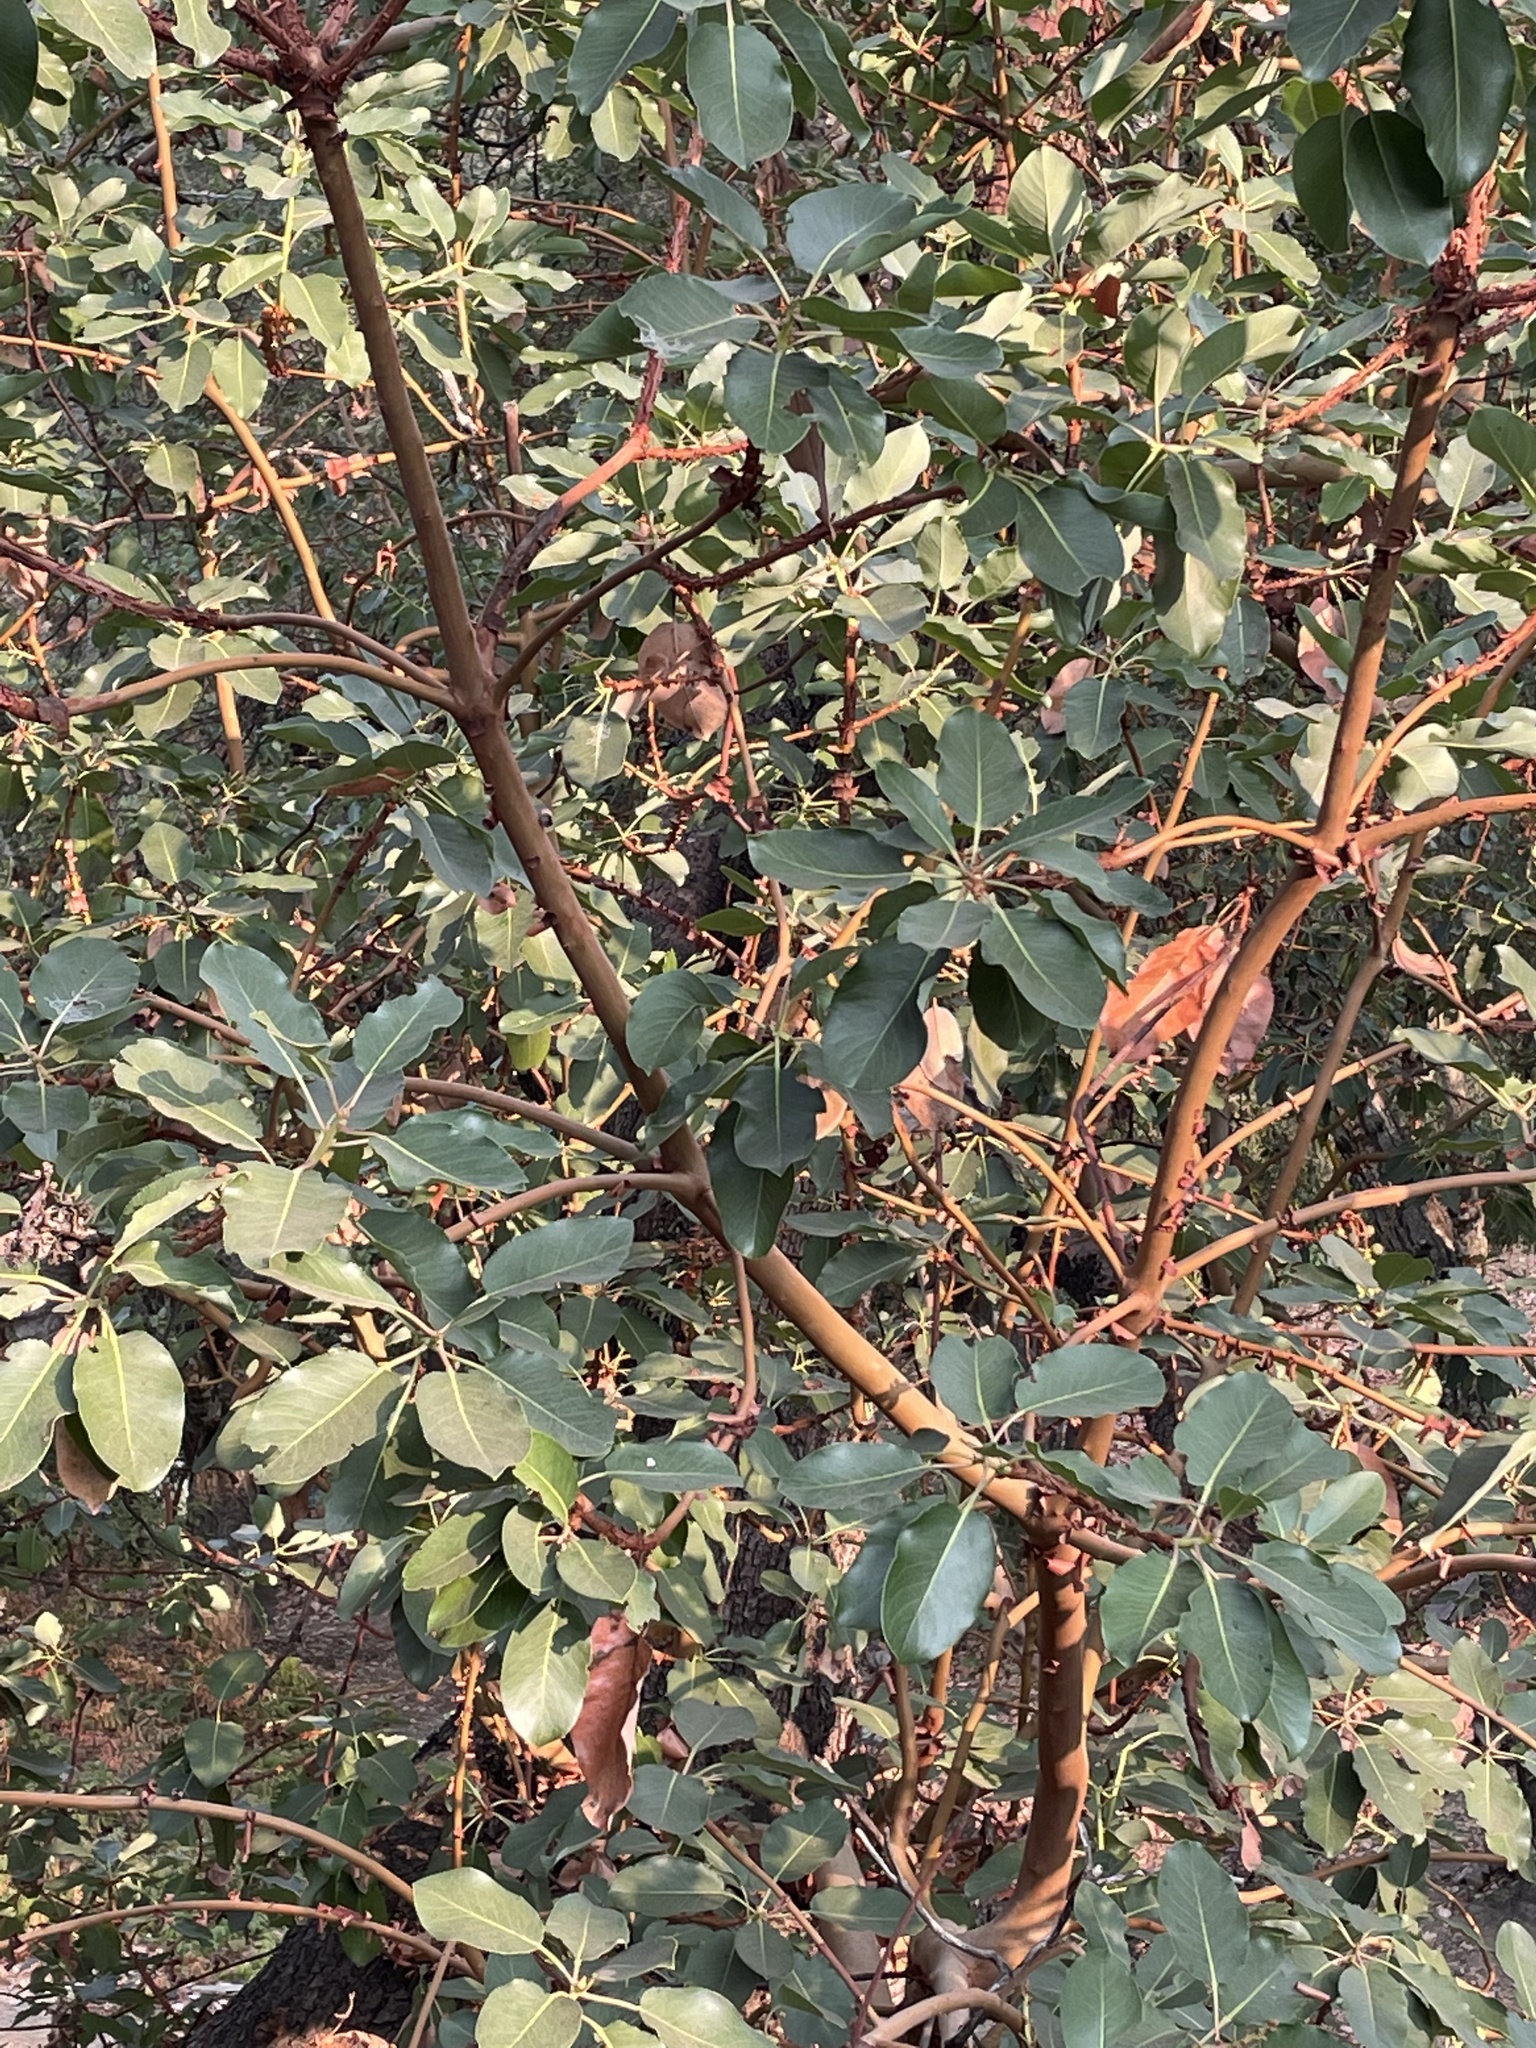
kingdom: Plantae
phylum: Tracheophyta
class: Magnoliopsida
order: Ericales
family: Ericaceae
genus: Arbutus
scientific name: Arbutus menziesii
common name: Pacific madrone
